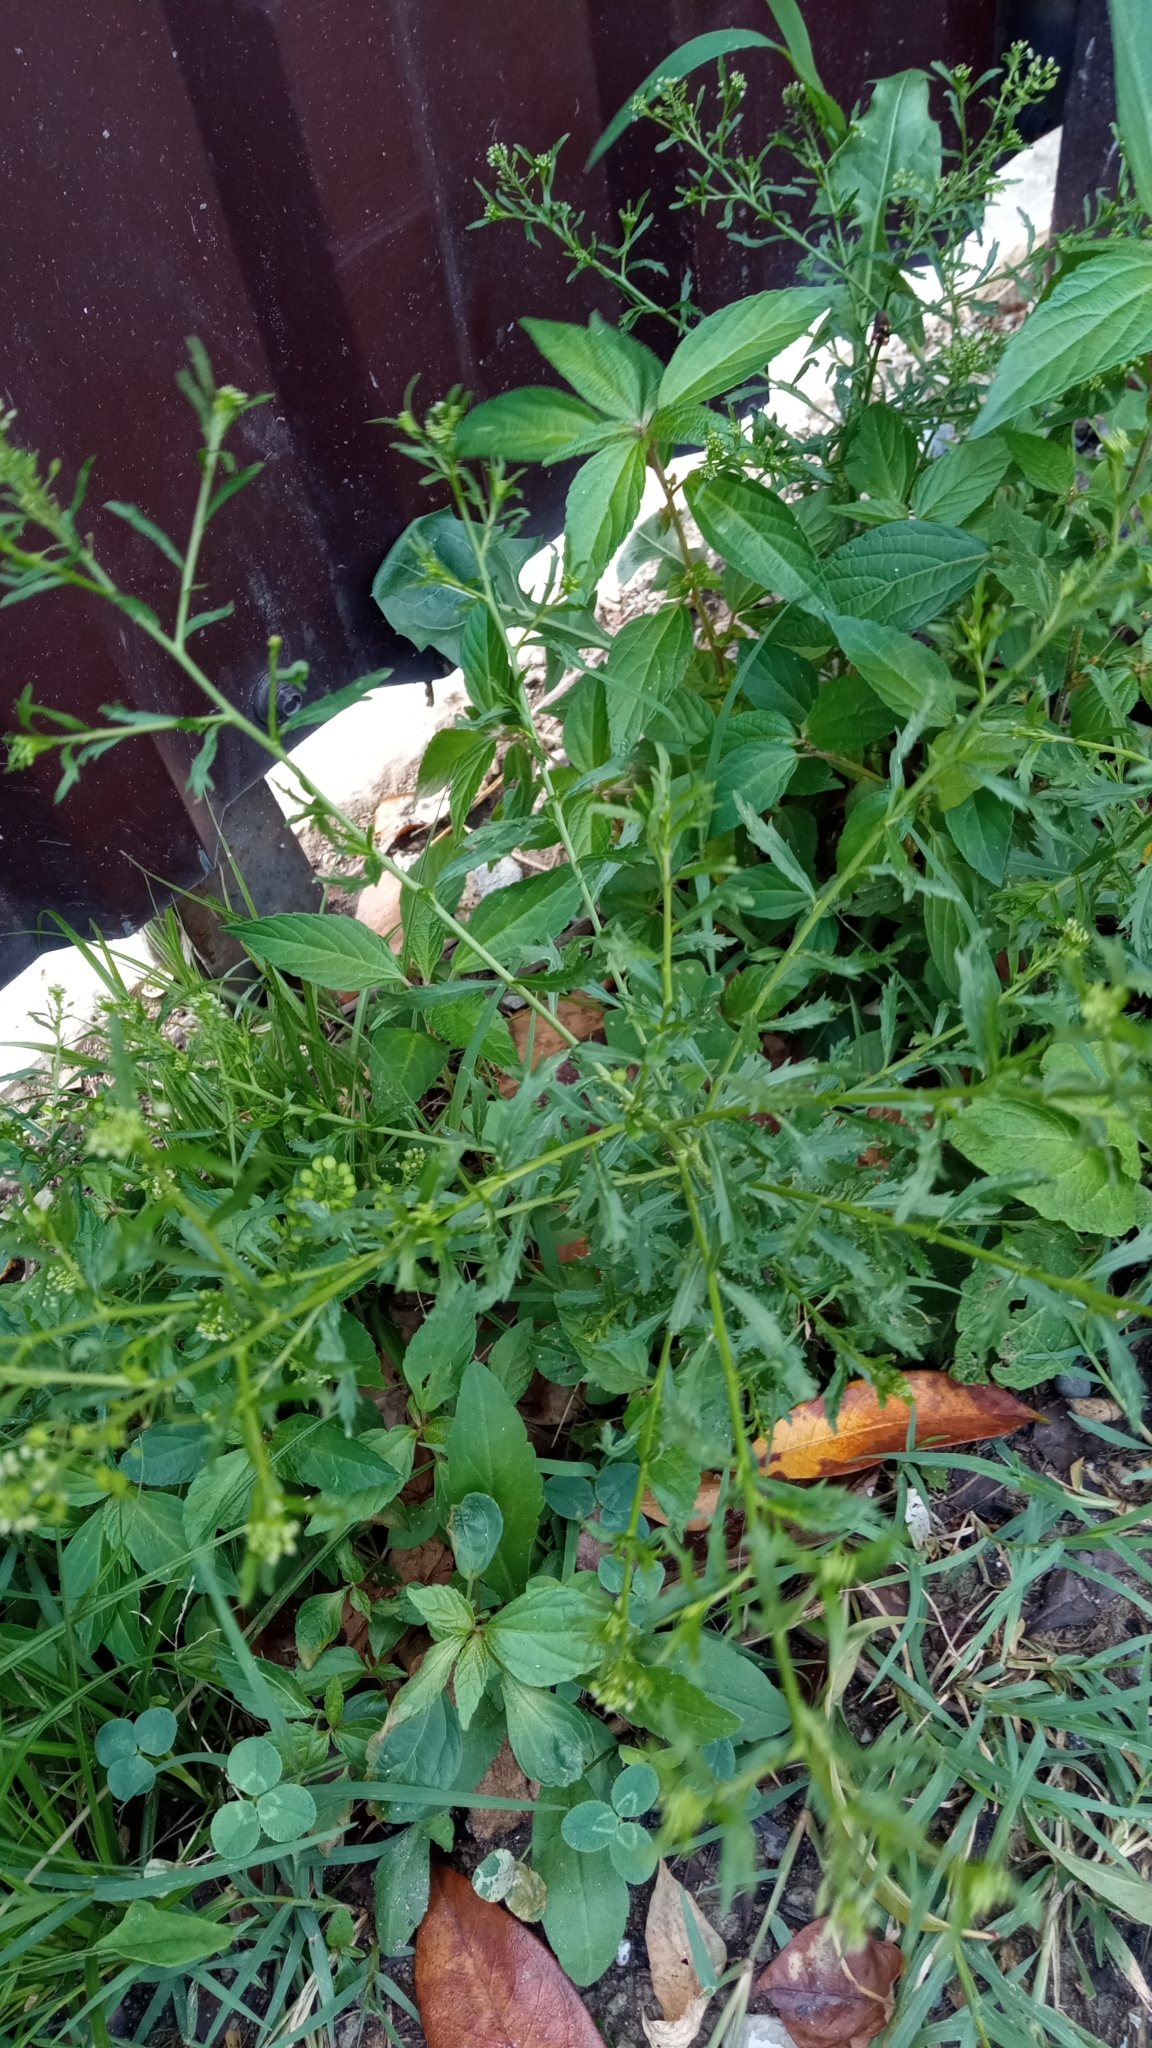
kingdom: Plantae
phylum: Tracheophyta
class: Magnoliopsida
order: Brassicales
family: Brassicaceae
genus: Lepidium
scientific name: Lepidium virginicum
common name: Least pepperwort
